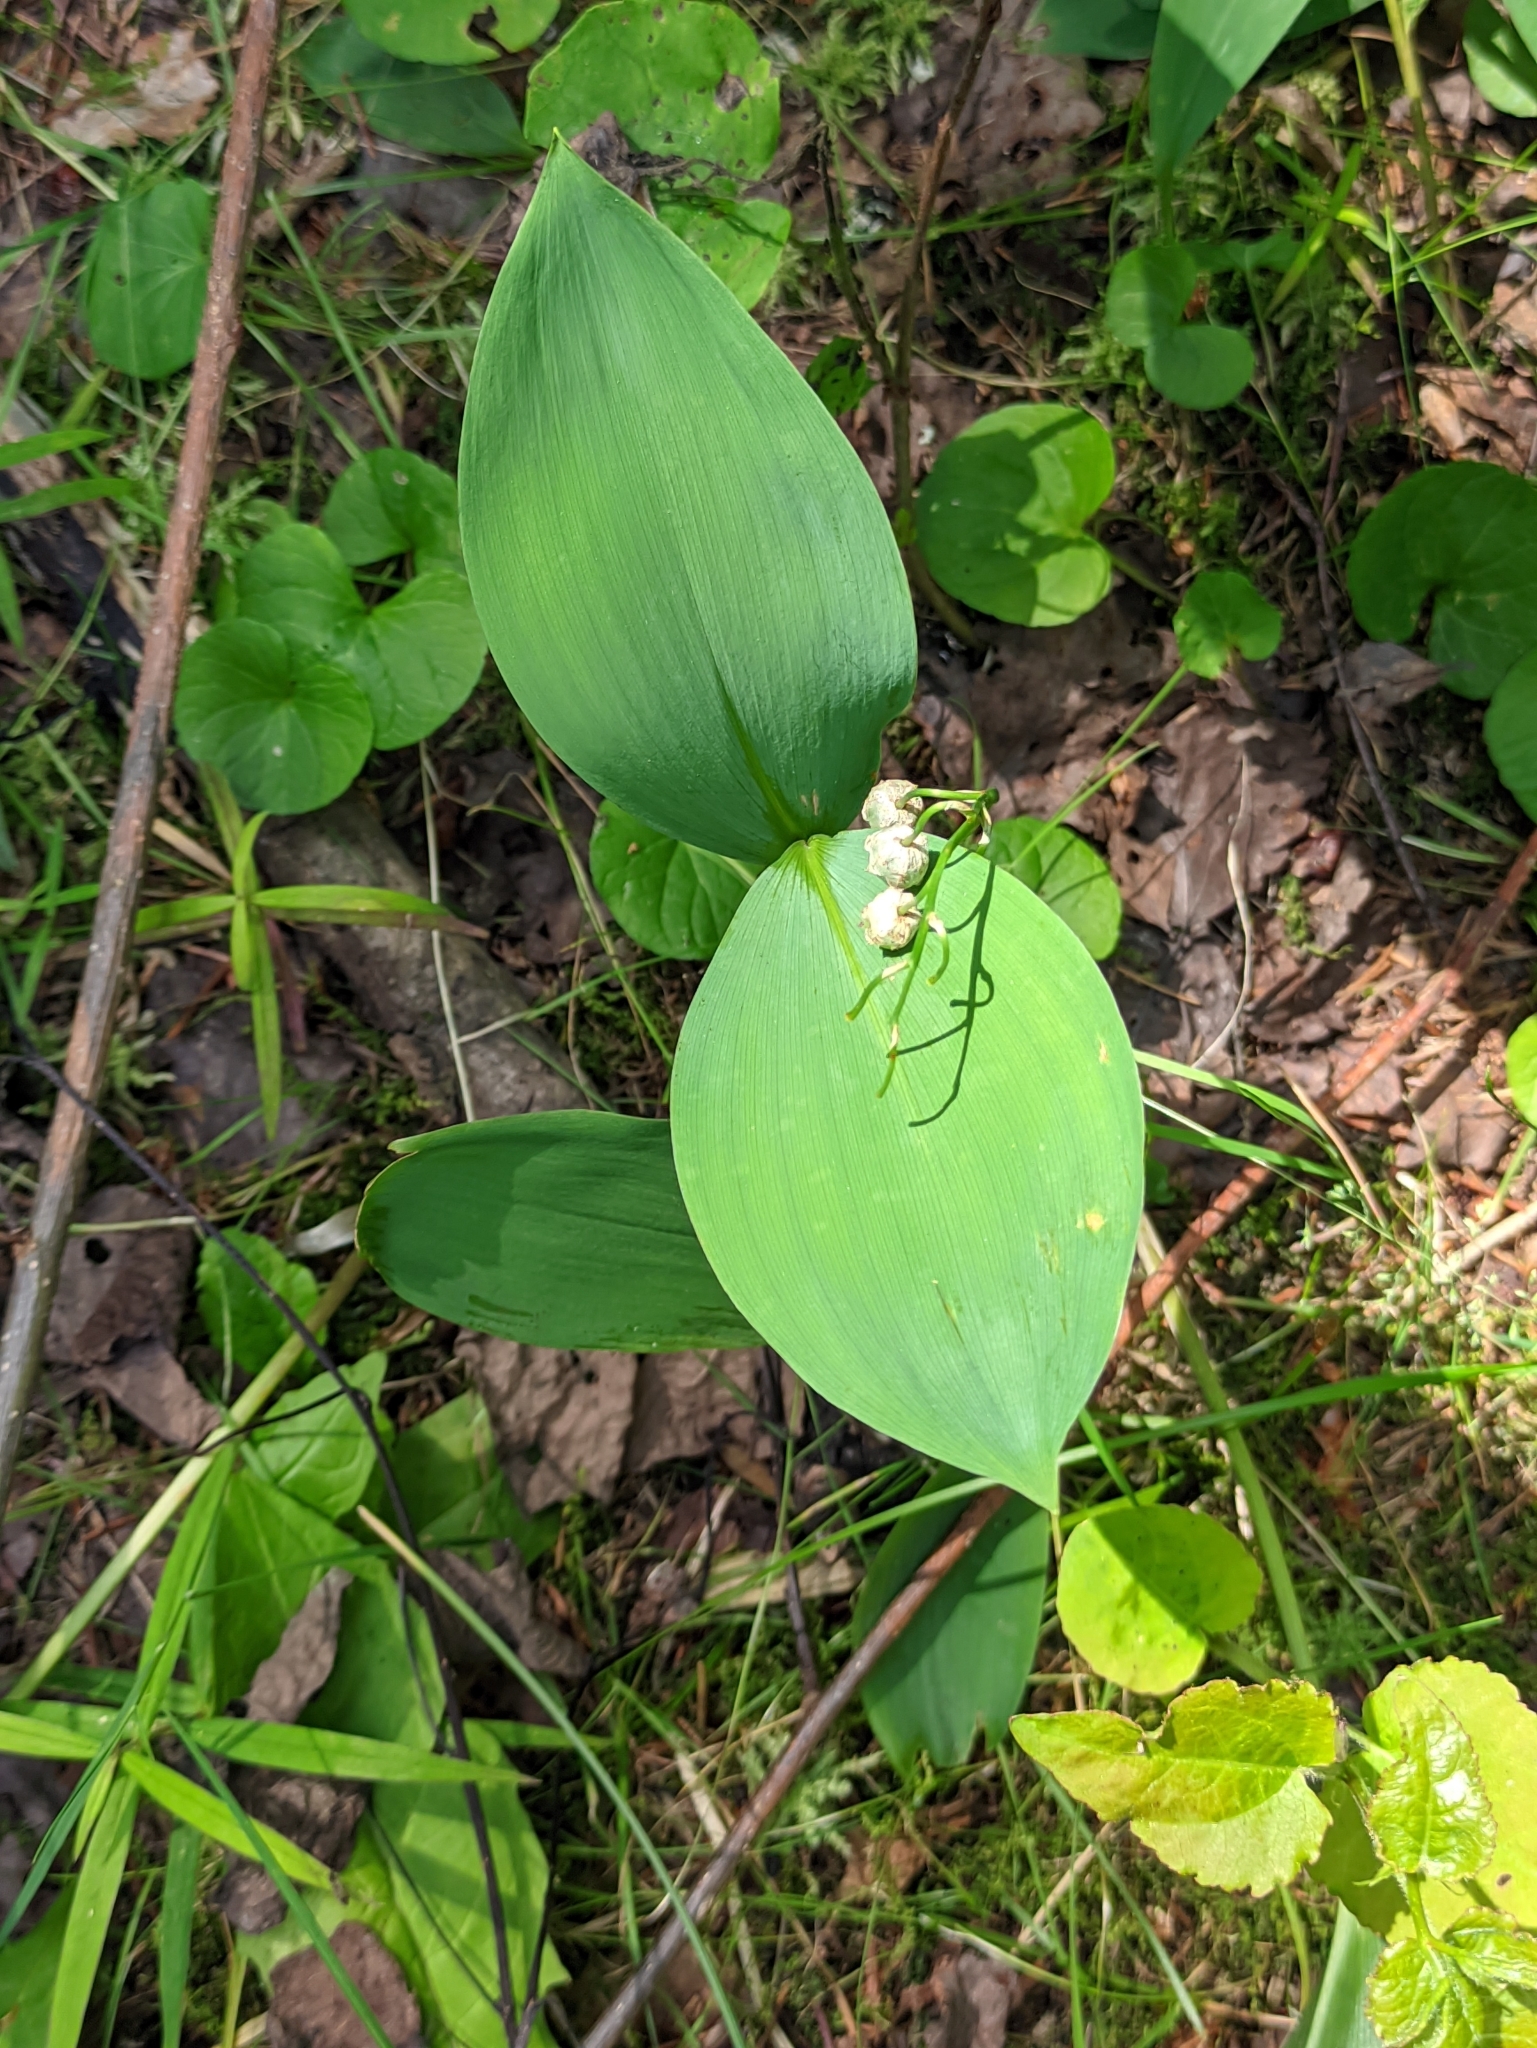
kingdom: Plantae
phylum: Tracheophyta
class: Liliopsida
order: Asparagales
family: Asparagaceae
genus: Convallaria
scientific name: Convallaria majalis
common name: Lily-of-the-valley
